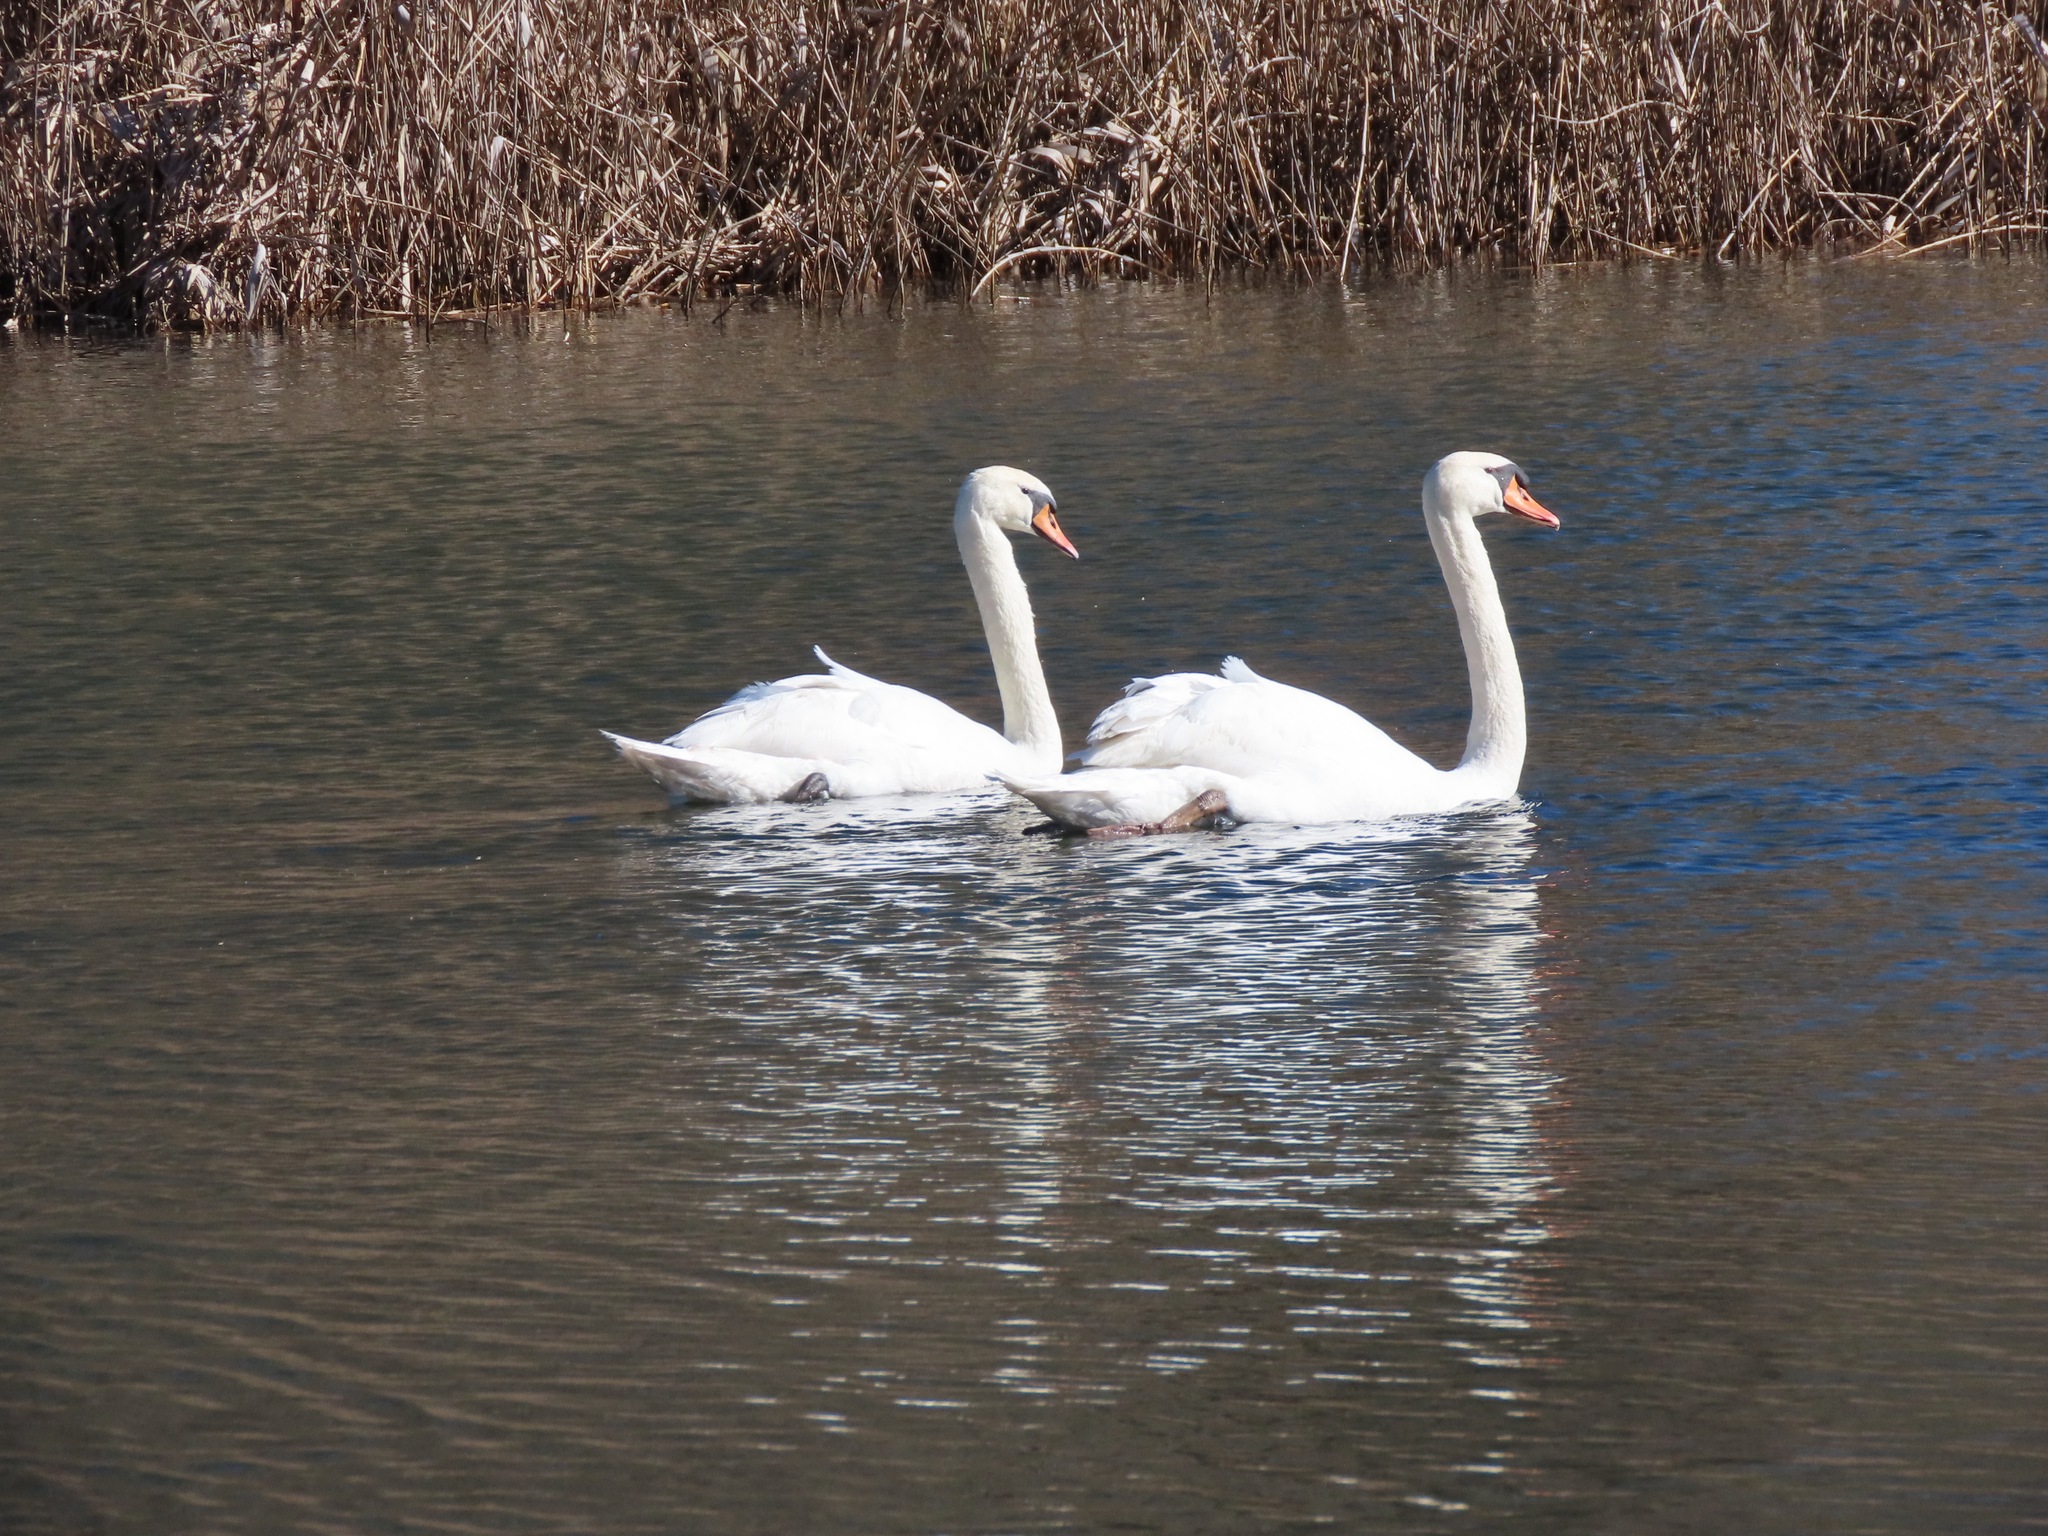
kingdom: Animalia
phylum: Chordata
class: Aves
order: Anseriformes
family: Anatidae
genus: Cygnus
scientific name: Cygnus olor
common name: Mute swan
